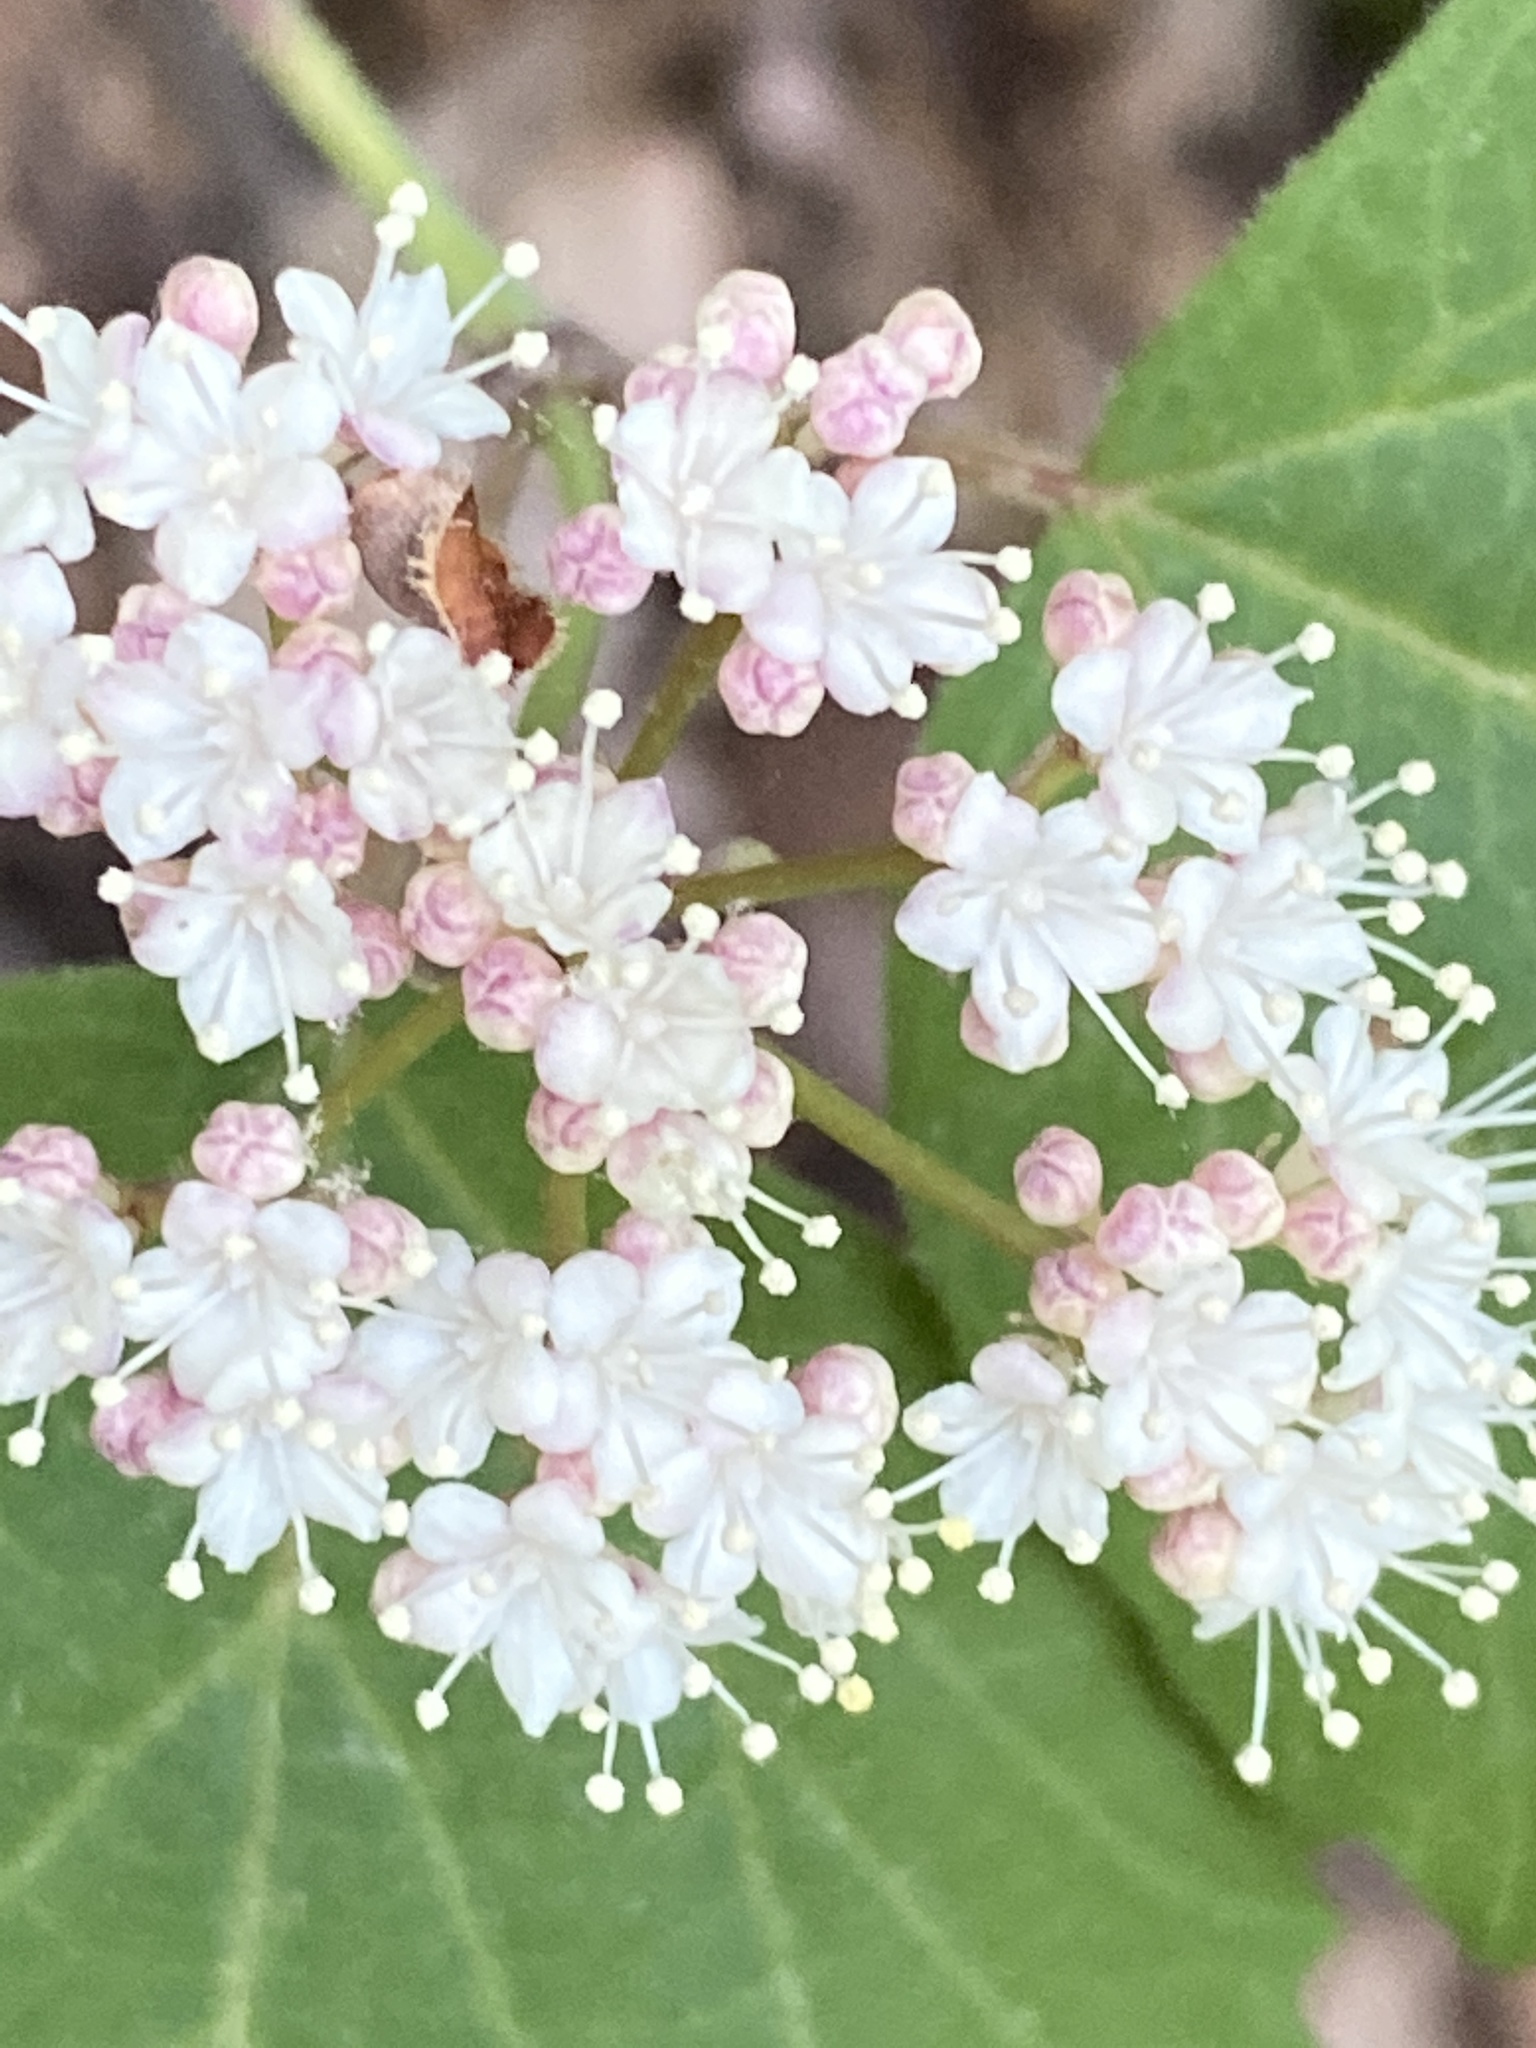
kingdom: Plantae
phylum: Tracheophyta
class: Magnoliopsida
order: Dipsacales
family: Viburnaceae
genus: Viburnum
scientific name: Viburnum acerifolium
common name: Dockmackie
